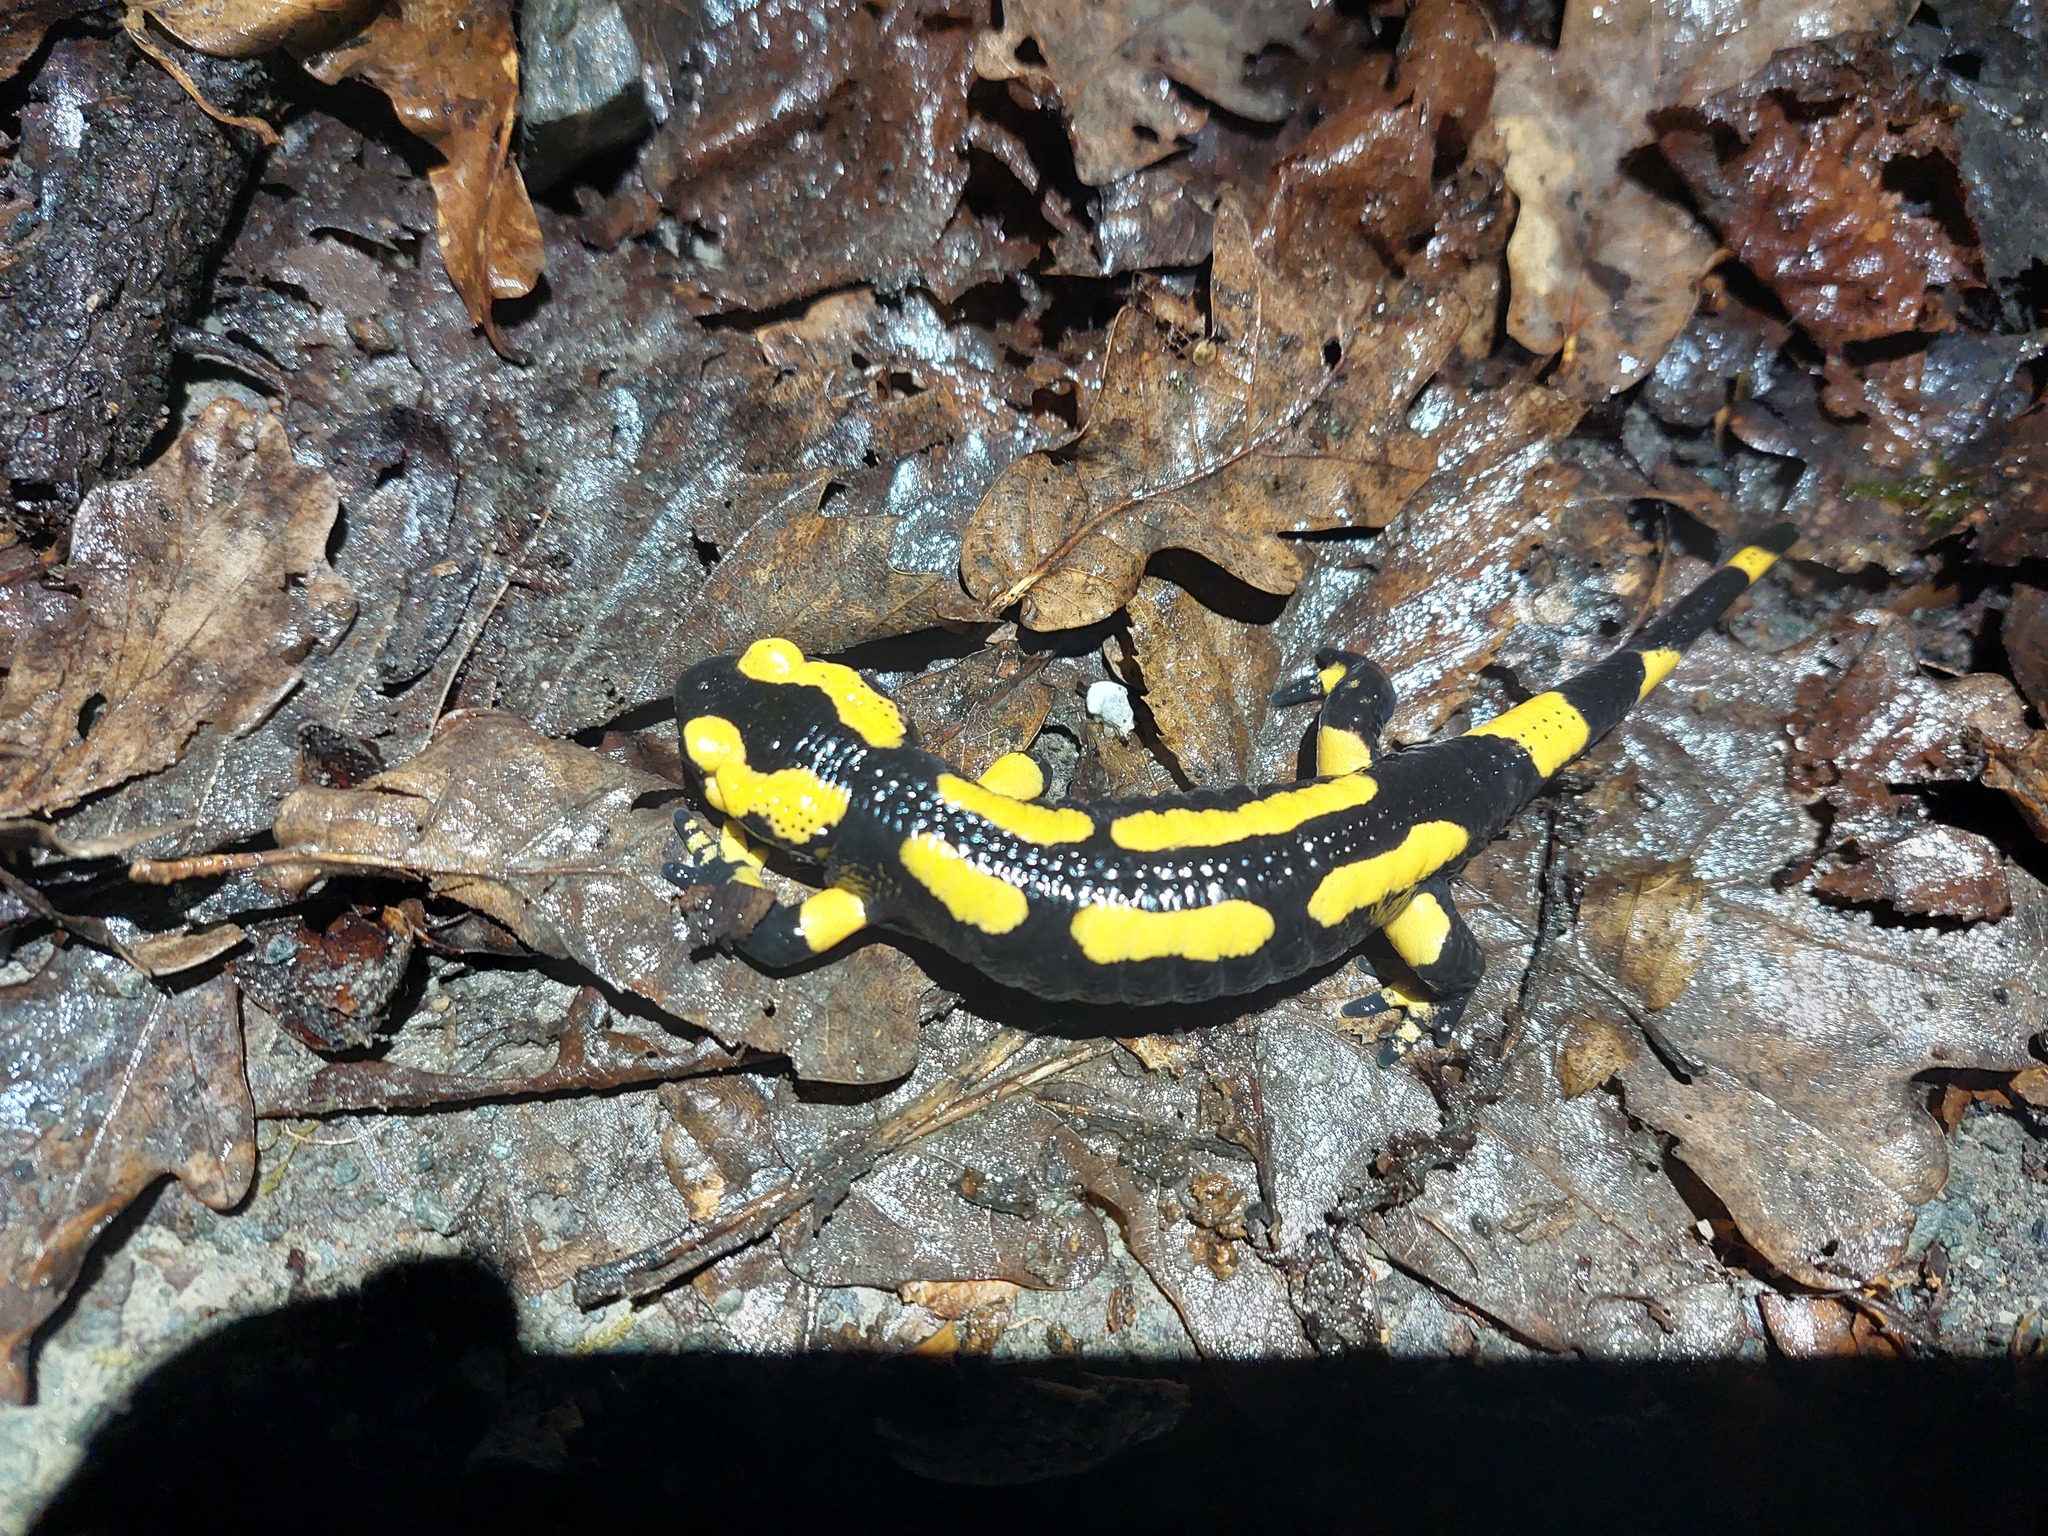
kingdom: Animalia
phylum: Chordata
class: Amphibia
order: Caudata
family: Salamandridae
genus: Salamandra
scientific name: Salamandra salamandra
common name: Fire salamander
